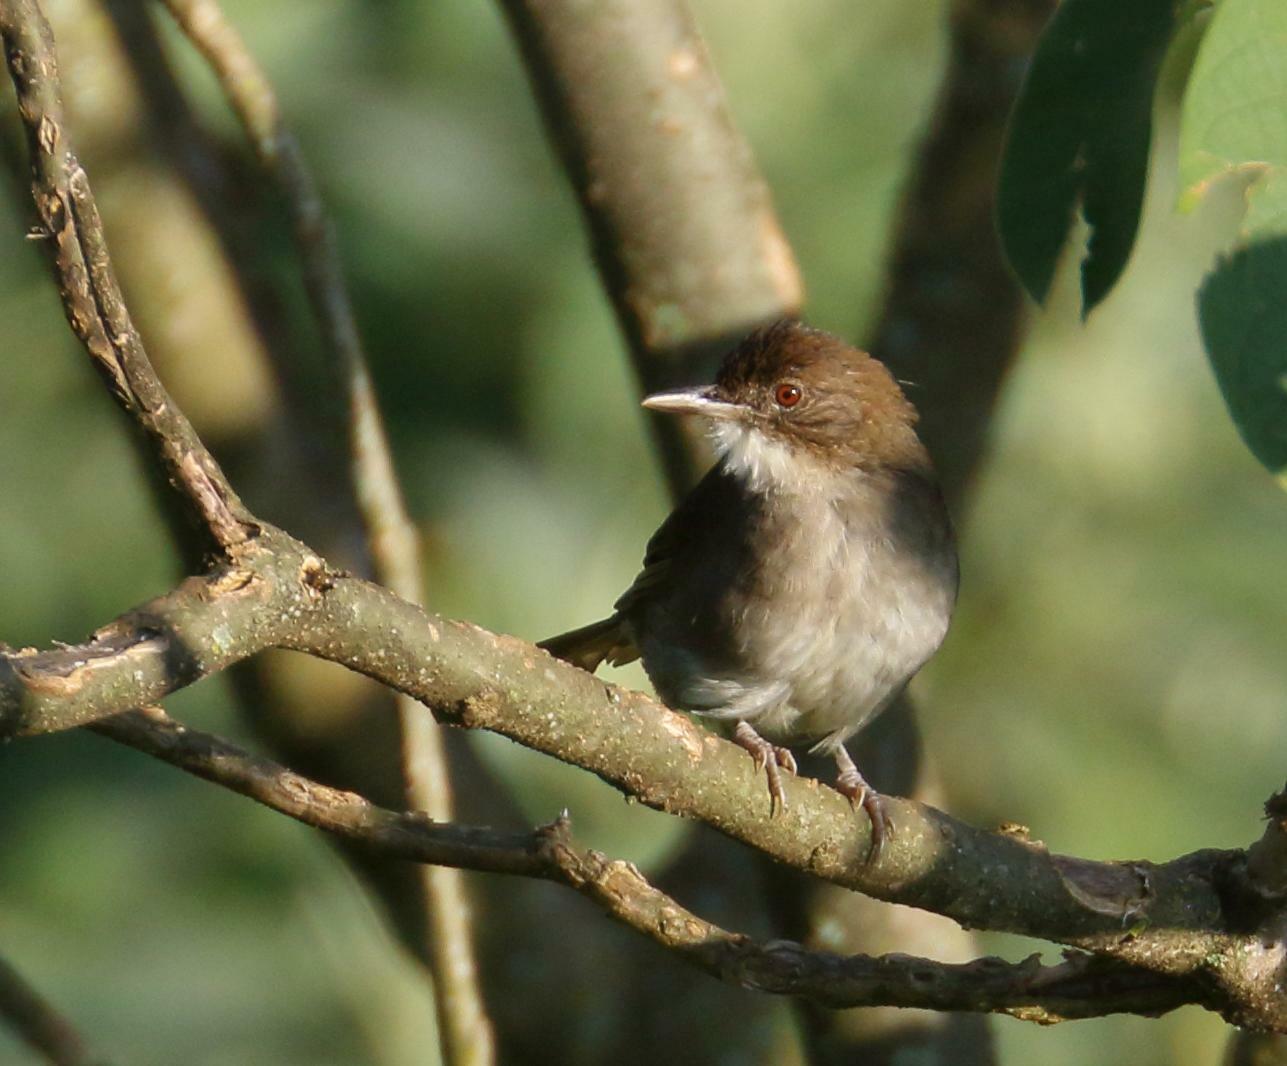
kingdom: Animalia
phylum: Chordata
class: Aves
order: Passeriformes
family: Pycnonotidae
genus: Phyllastrephus
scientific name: Phyllastrephus terrestris
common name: Terrestrial brownbul
